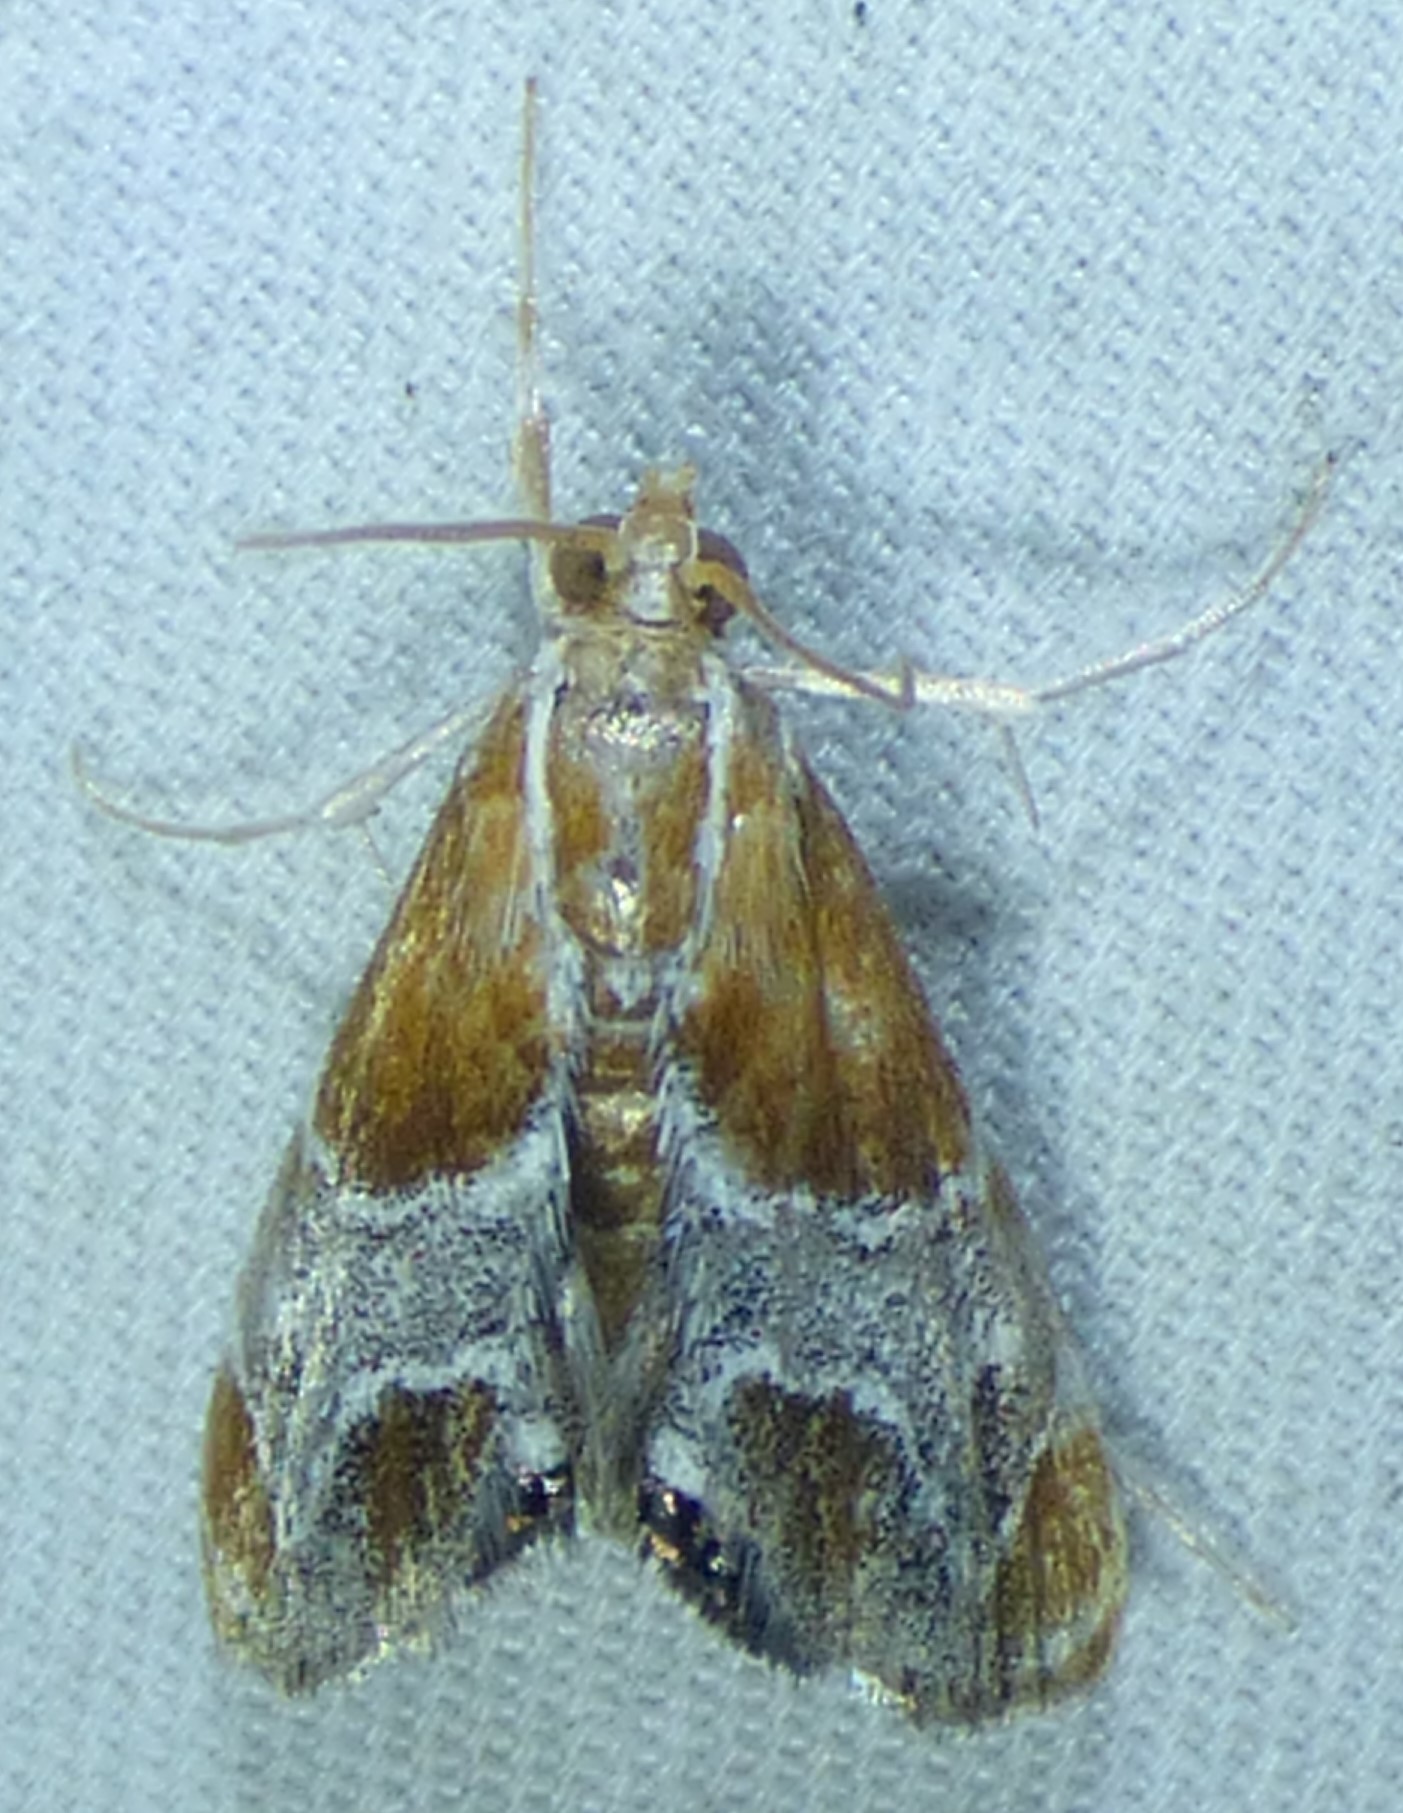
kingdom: Animalia
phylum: Arthropoda
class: Insecta
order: Lepidoptera
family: Crambidae
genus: Chalcoela
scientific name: Chalcoela pegasalis
